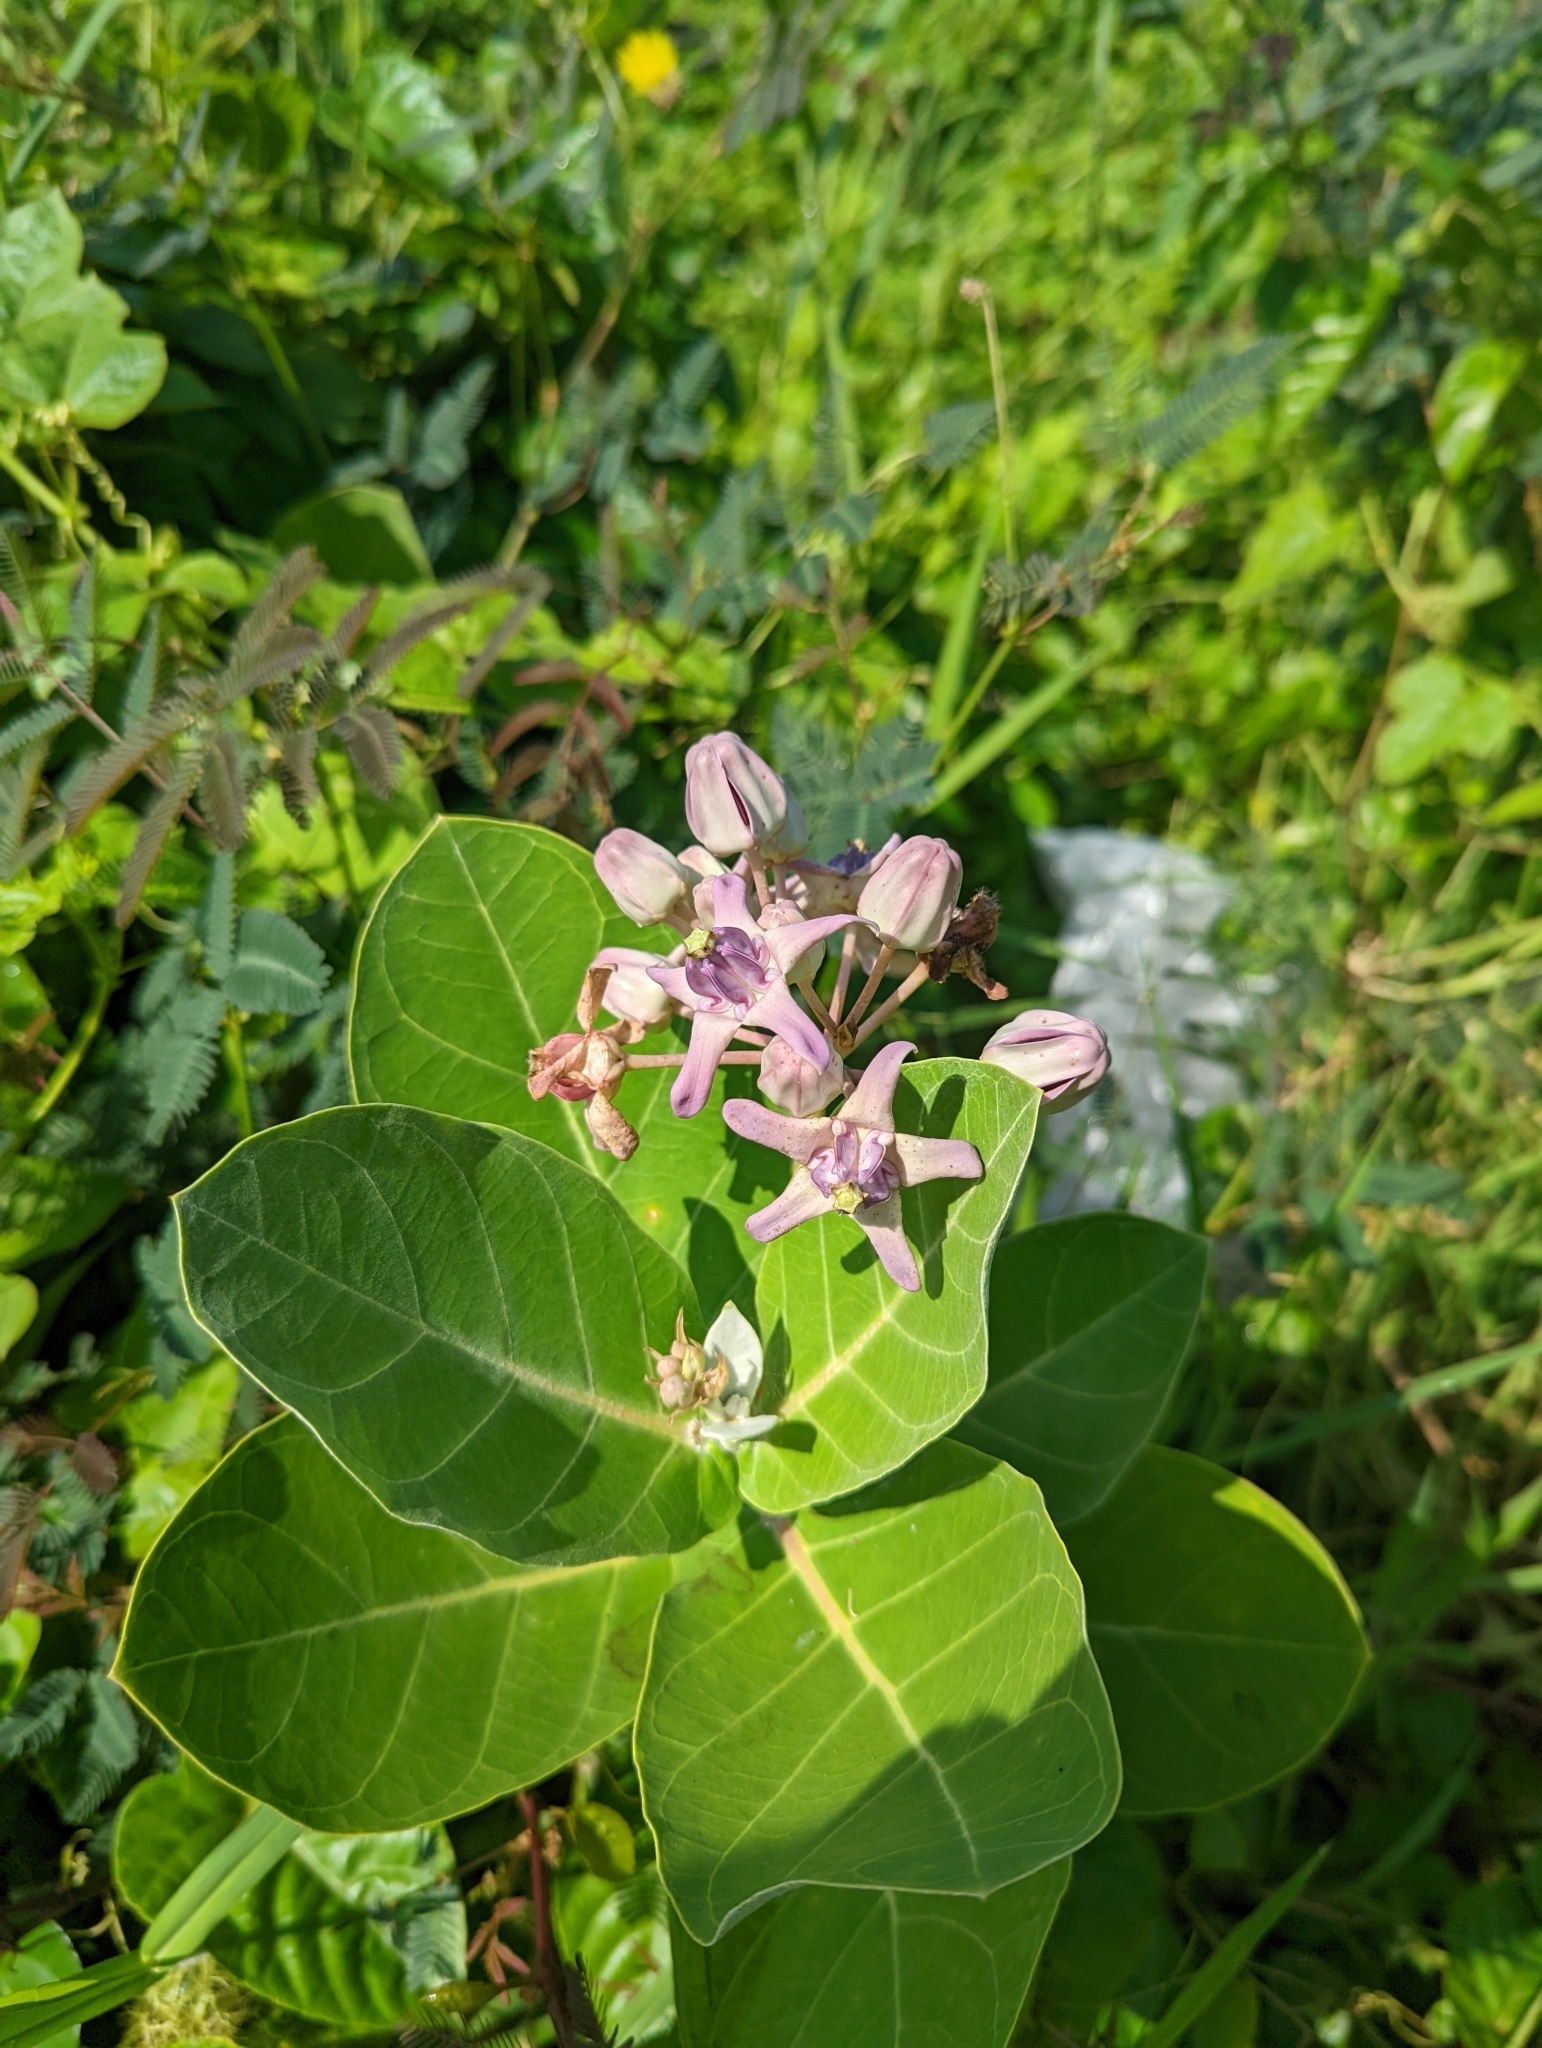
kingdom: Plantae
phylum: Tracheophyta
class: Magnoliopsida
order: Gentianales
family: Apocynaceae
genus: Calotropis
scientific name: Calotropis gigantea
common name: Crown flower
